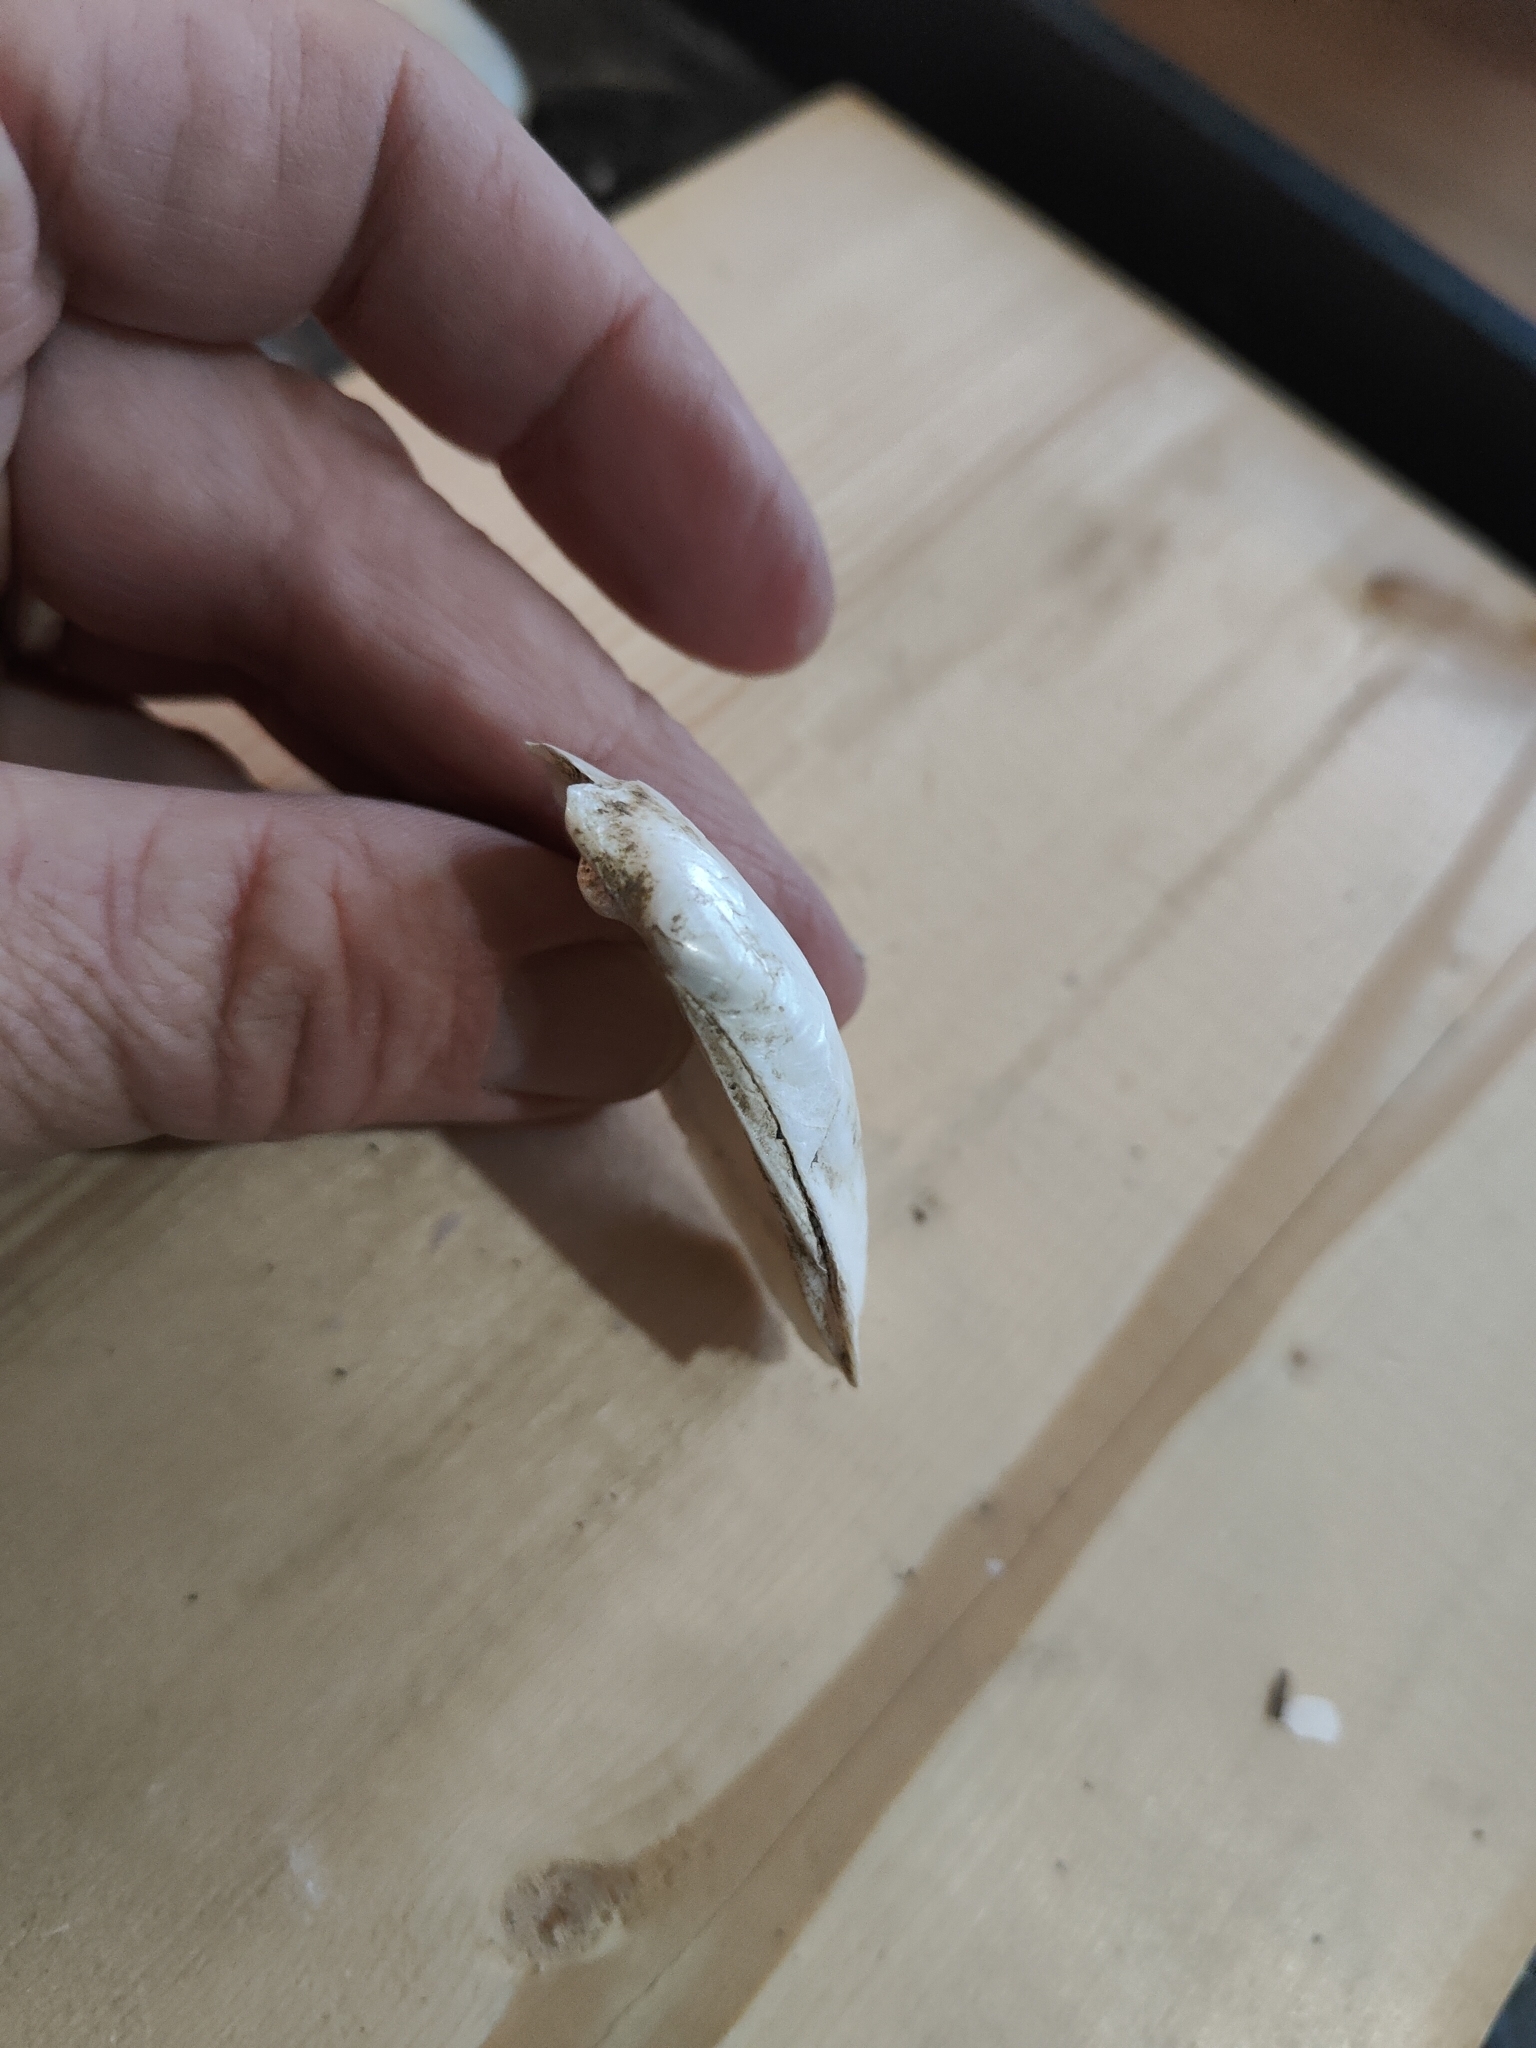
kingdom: Animalia
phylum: Mollusca
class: Bivalvia
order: Unionida
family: Unionidae
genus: Lampsilis
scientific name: Lampsilis siliquoidea
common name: Fatmucket
